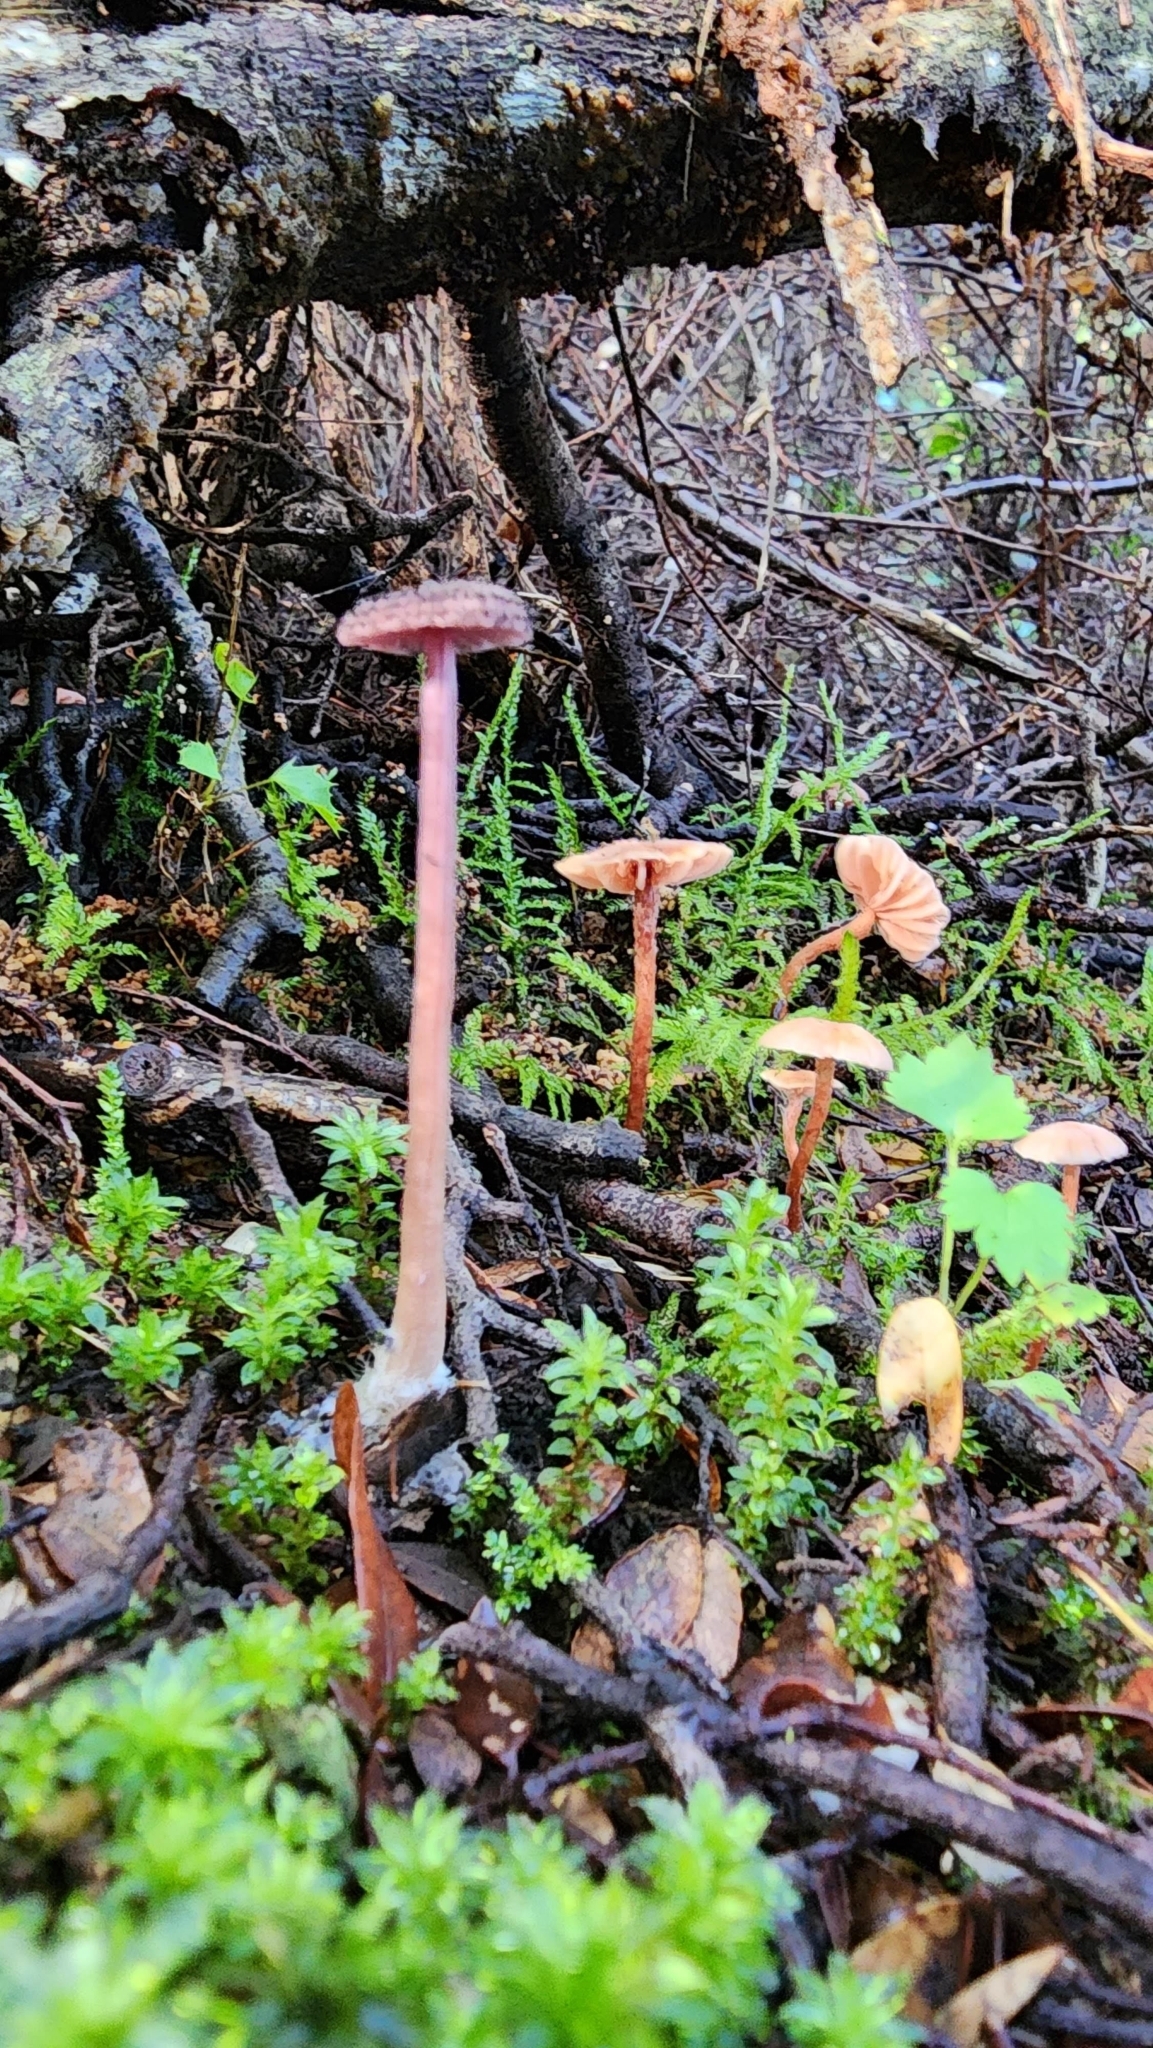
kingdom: Fungi
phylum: Basidiomycota
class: Agaricomycetes
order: Agaricales
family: Hydnangiaceae
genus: Laccaria
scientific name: Laccaria masoniae
